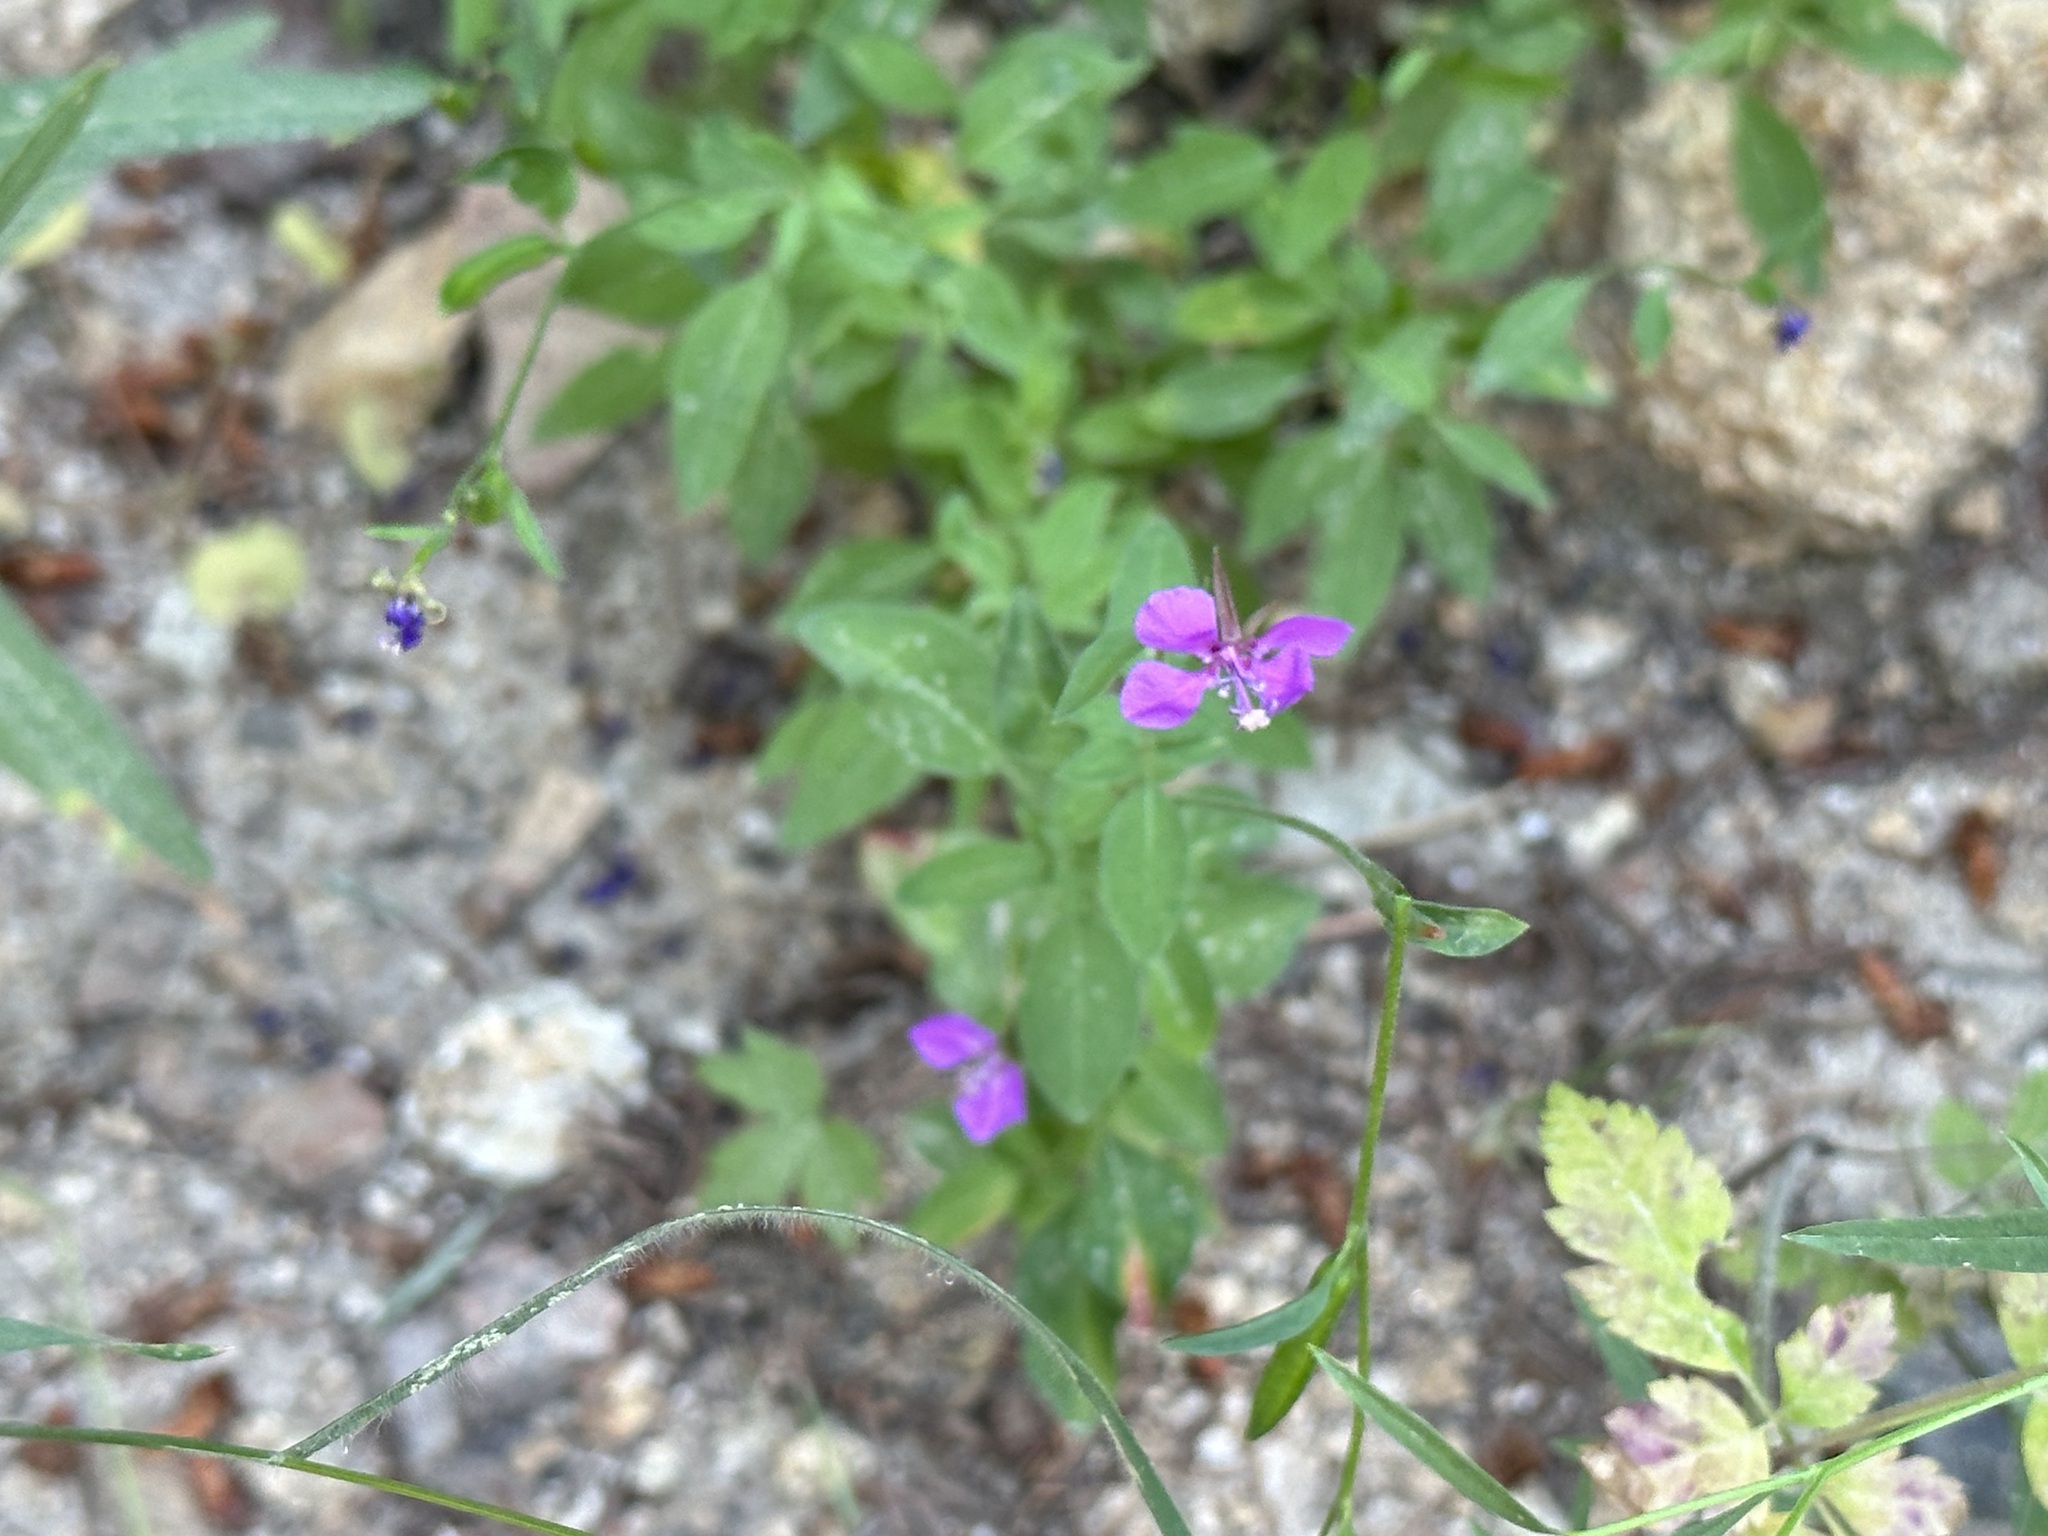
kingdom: Plantae
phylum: Tracheophyta
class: Magnoliopsida
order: Myrtales
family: Onagraceae
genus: Clarkia
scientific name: Clarkia rhomboidea
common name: Broadleaf clarkia
